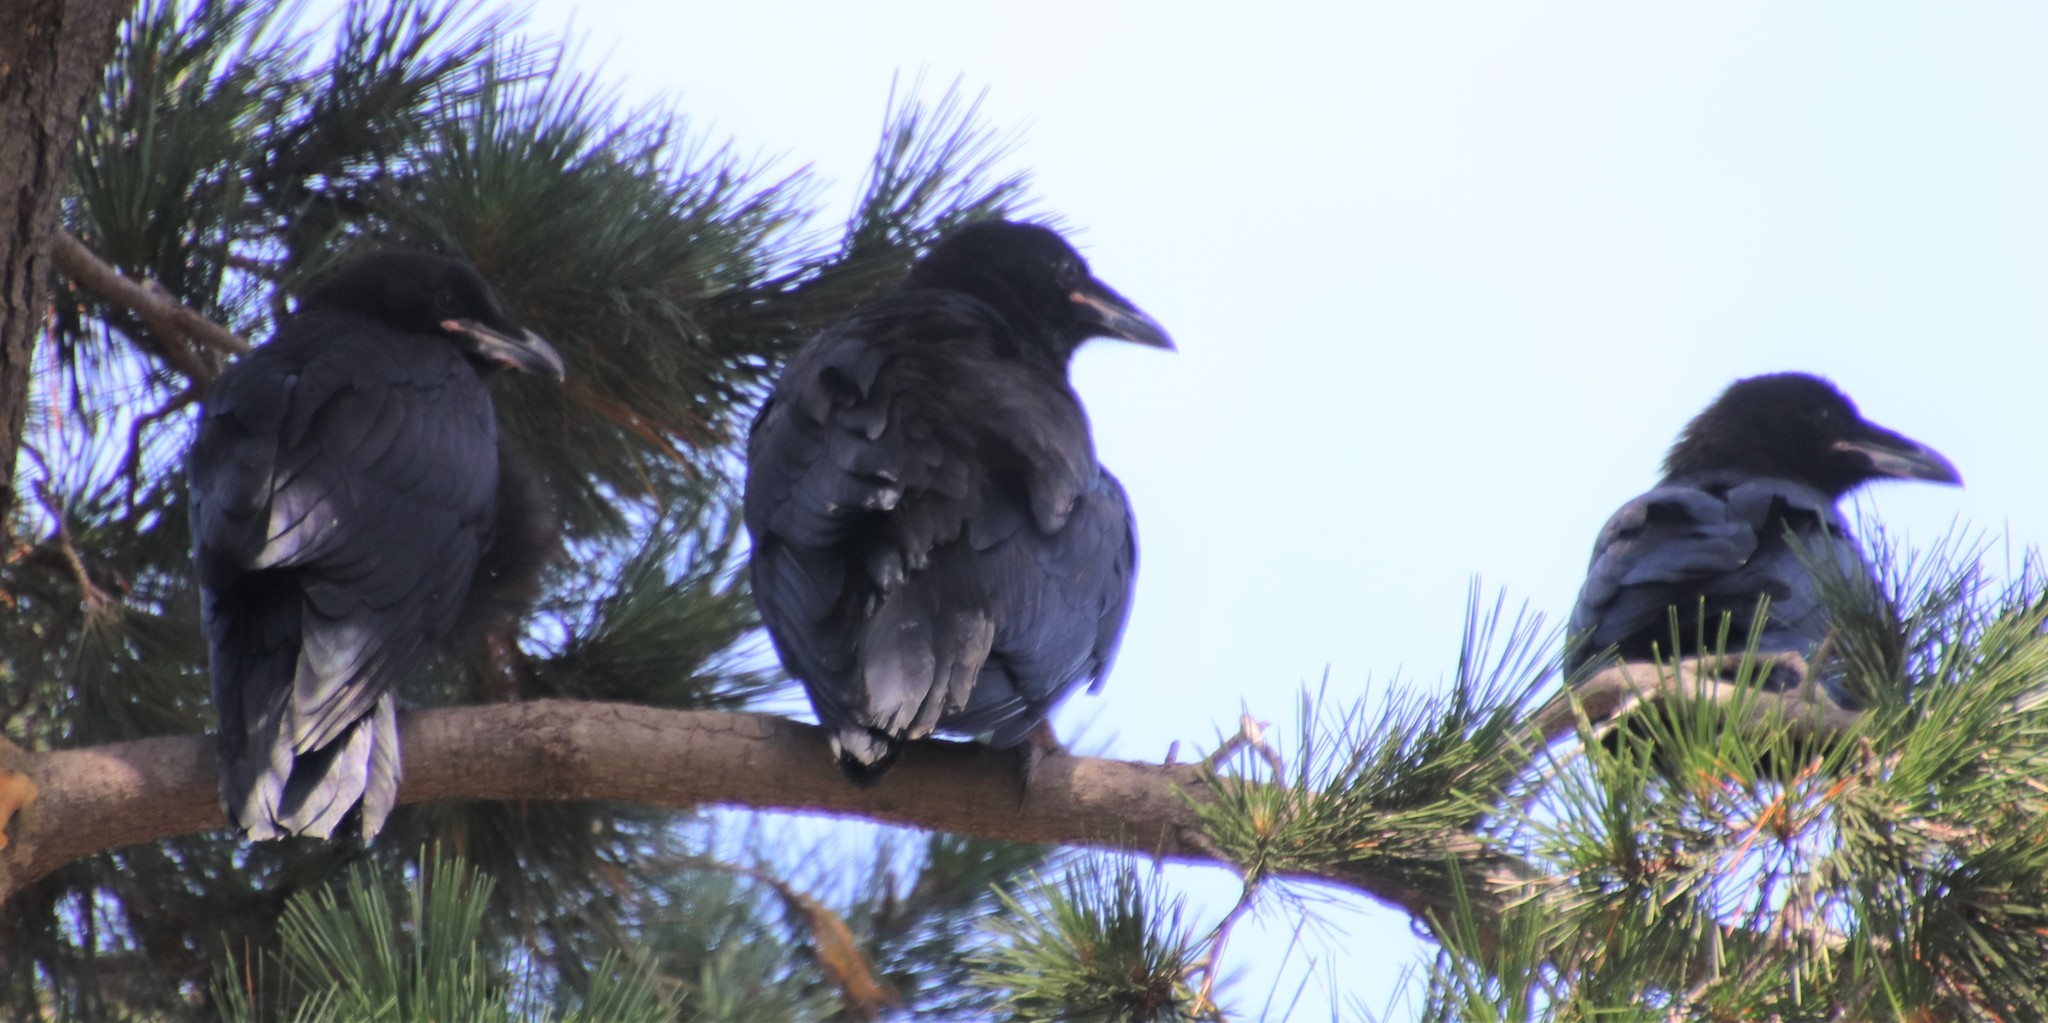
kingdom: Animalia
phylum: Chordata
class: Aves
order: Passeriformes
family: Corvidae
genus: Corvus
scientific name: Corvus corax
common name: Common raven
